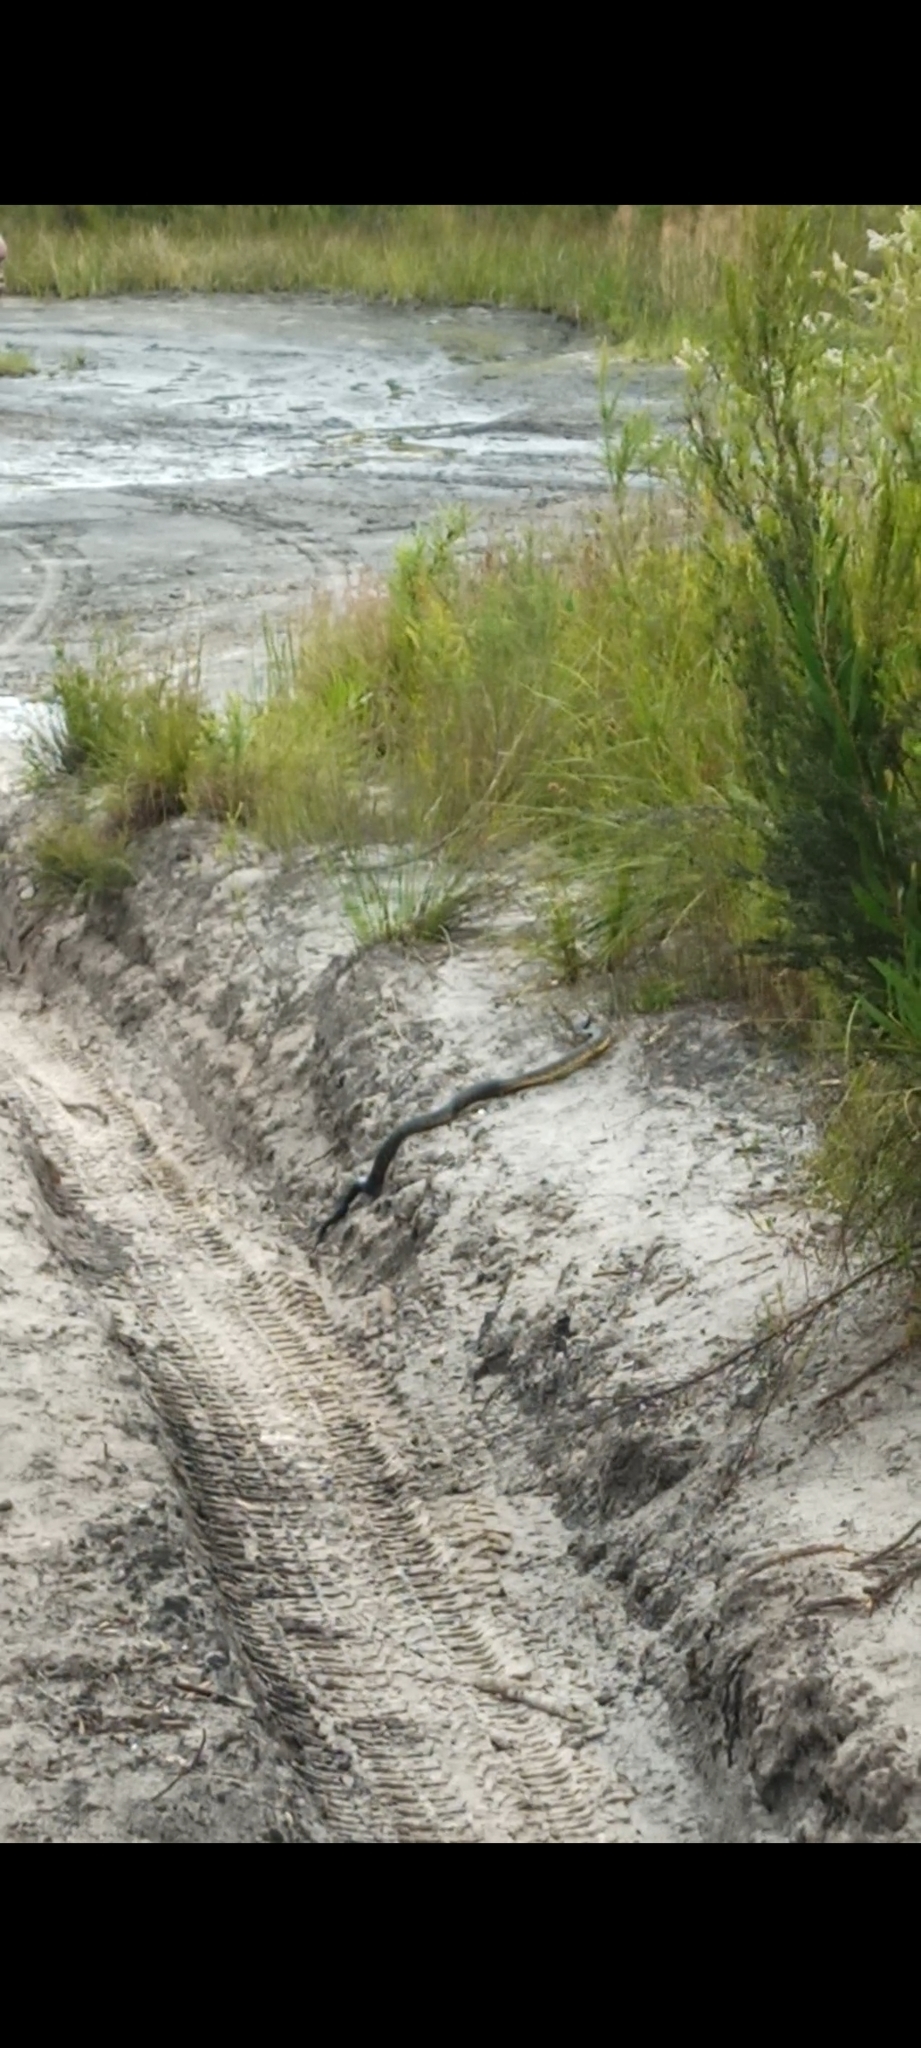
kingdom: Animalia
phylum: Chordata
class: Squamata
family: Elapidae
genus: Notechis
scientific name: Notechis scutatus
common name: Mainland tiger snake
